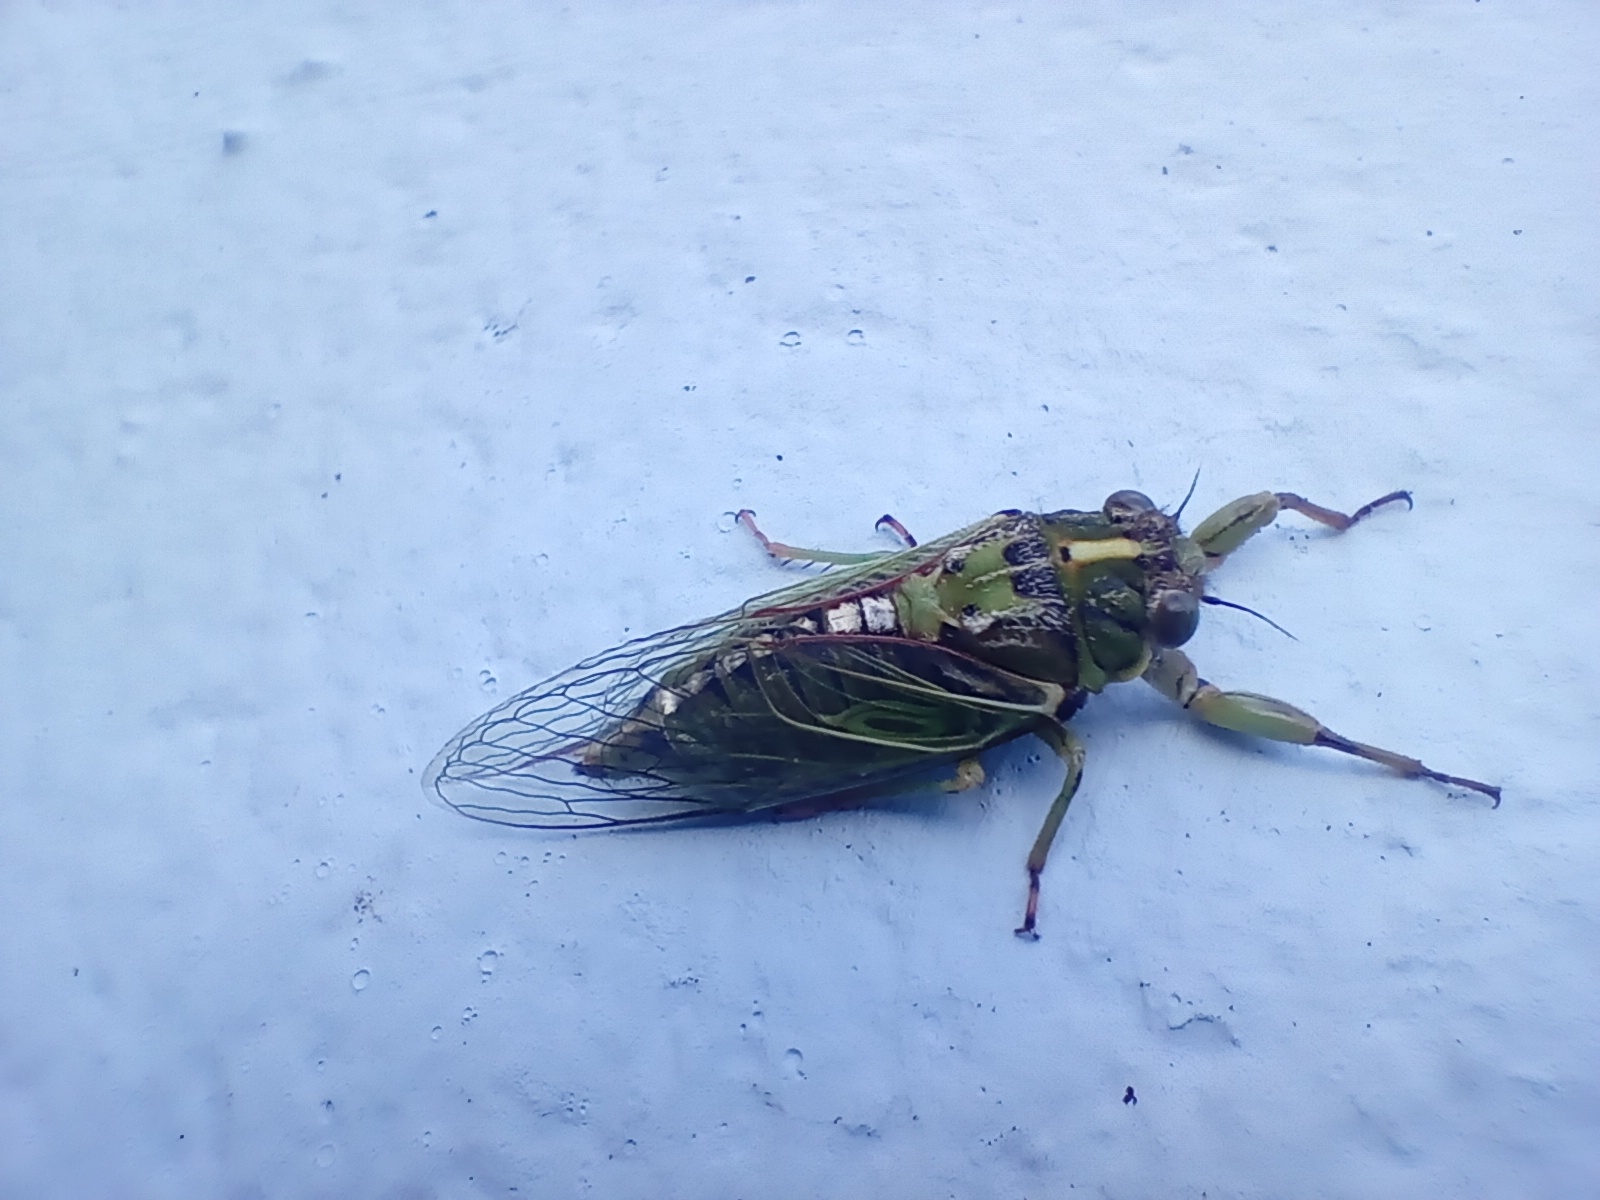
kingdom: Animalia
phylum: Arthropoda
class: Insecta
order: Hemiptera
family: Cicadidae
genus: Kikihia
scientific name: Kikihia rosea
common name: Murihiku cicada
